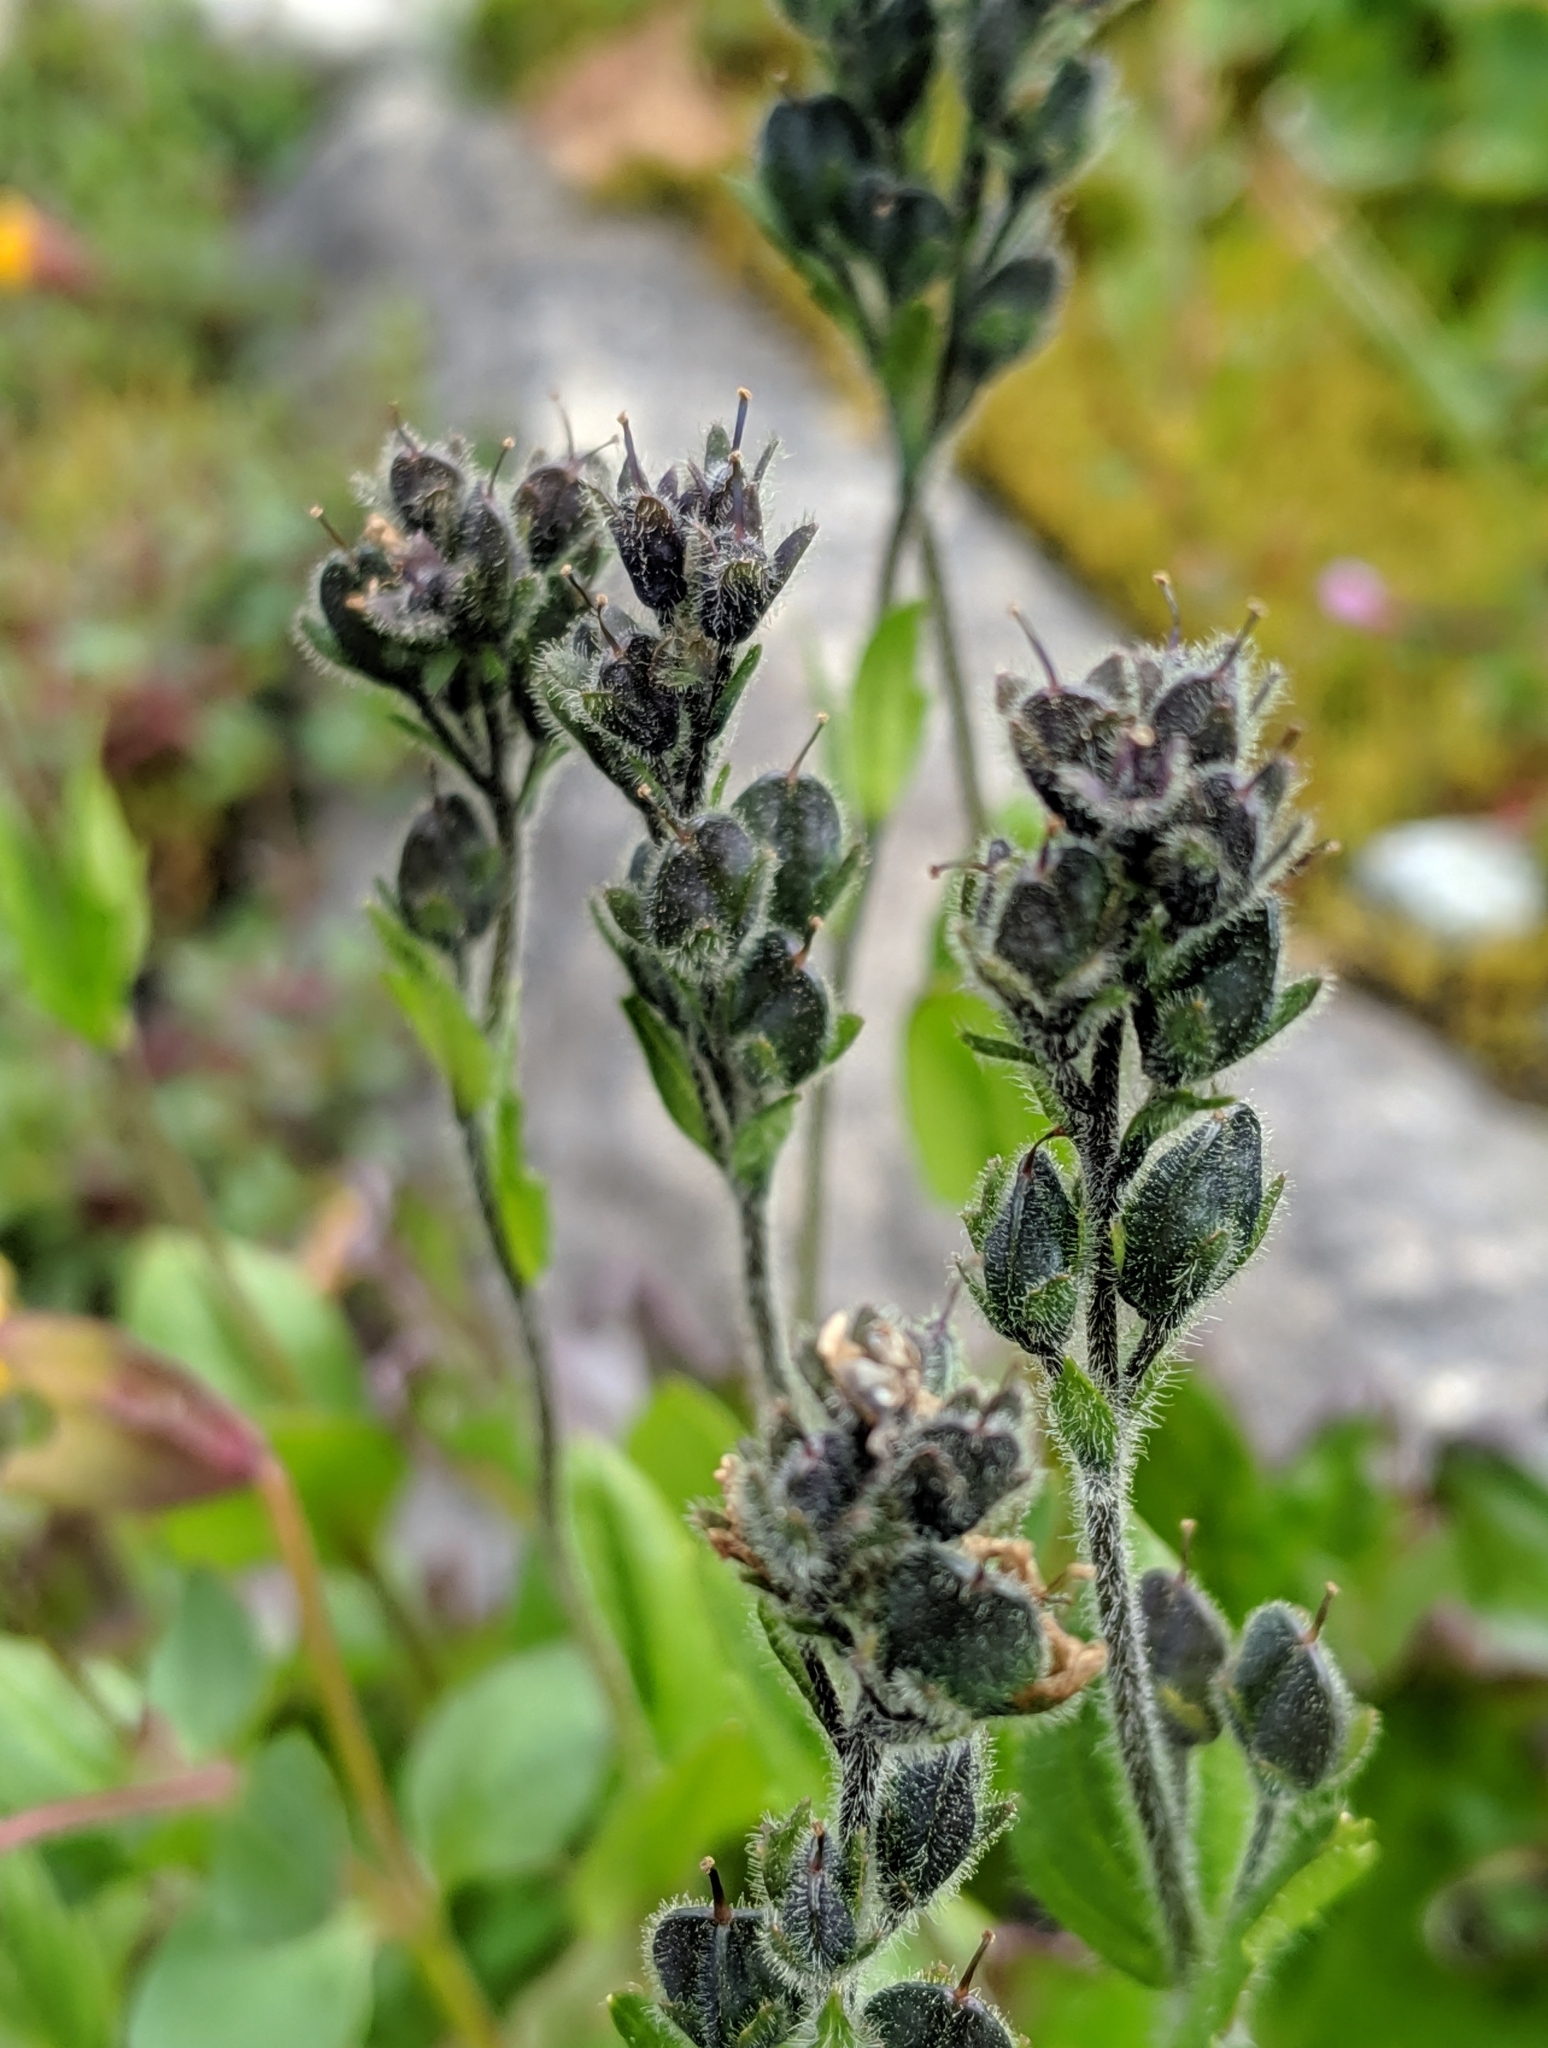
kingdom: Plantae
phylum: Tracheophyta
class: Magnoliopsida
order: Lamiales
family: Plantaginaceae
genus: Veronica
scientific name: Veronica wormskjoldii
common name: American alpine speedwell
